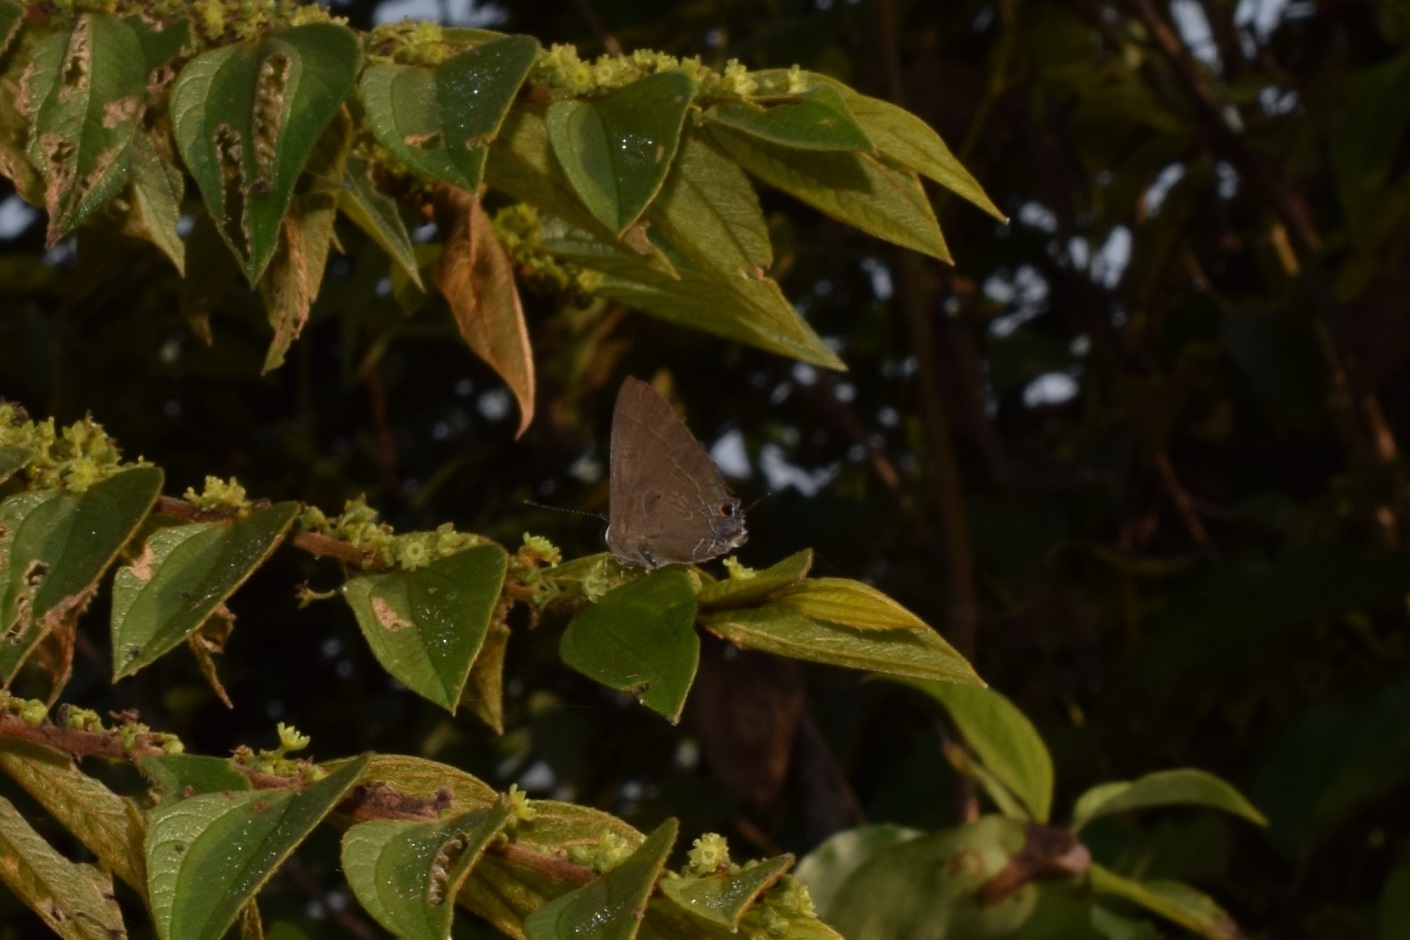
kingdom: Animalia
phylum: Arthropoda
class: Insecta
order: Lepidoptera
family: Lycaenidae
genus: Rapala
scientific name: Rapala manea
